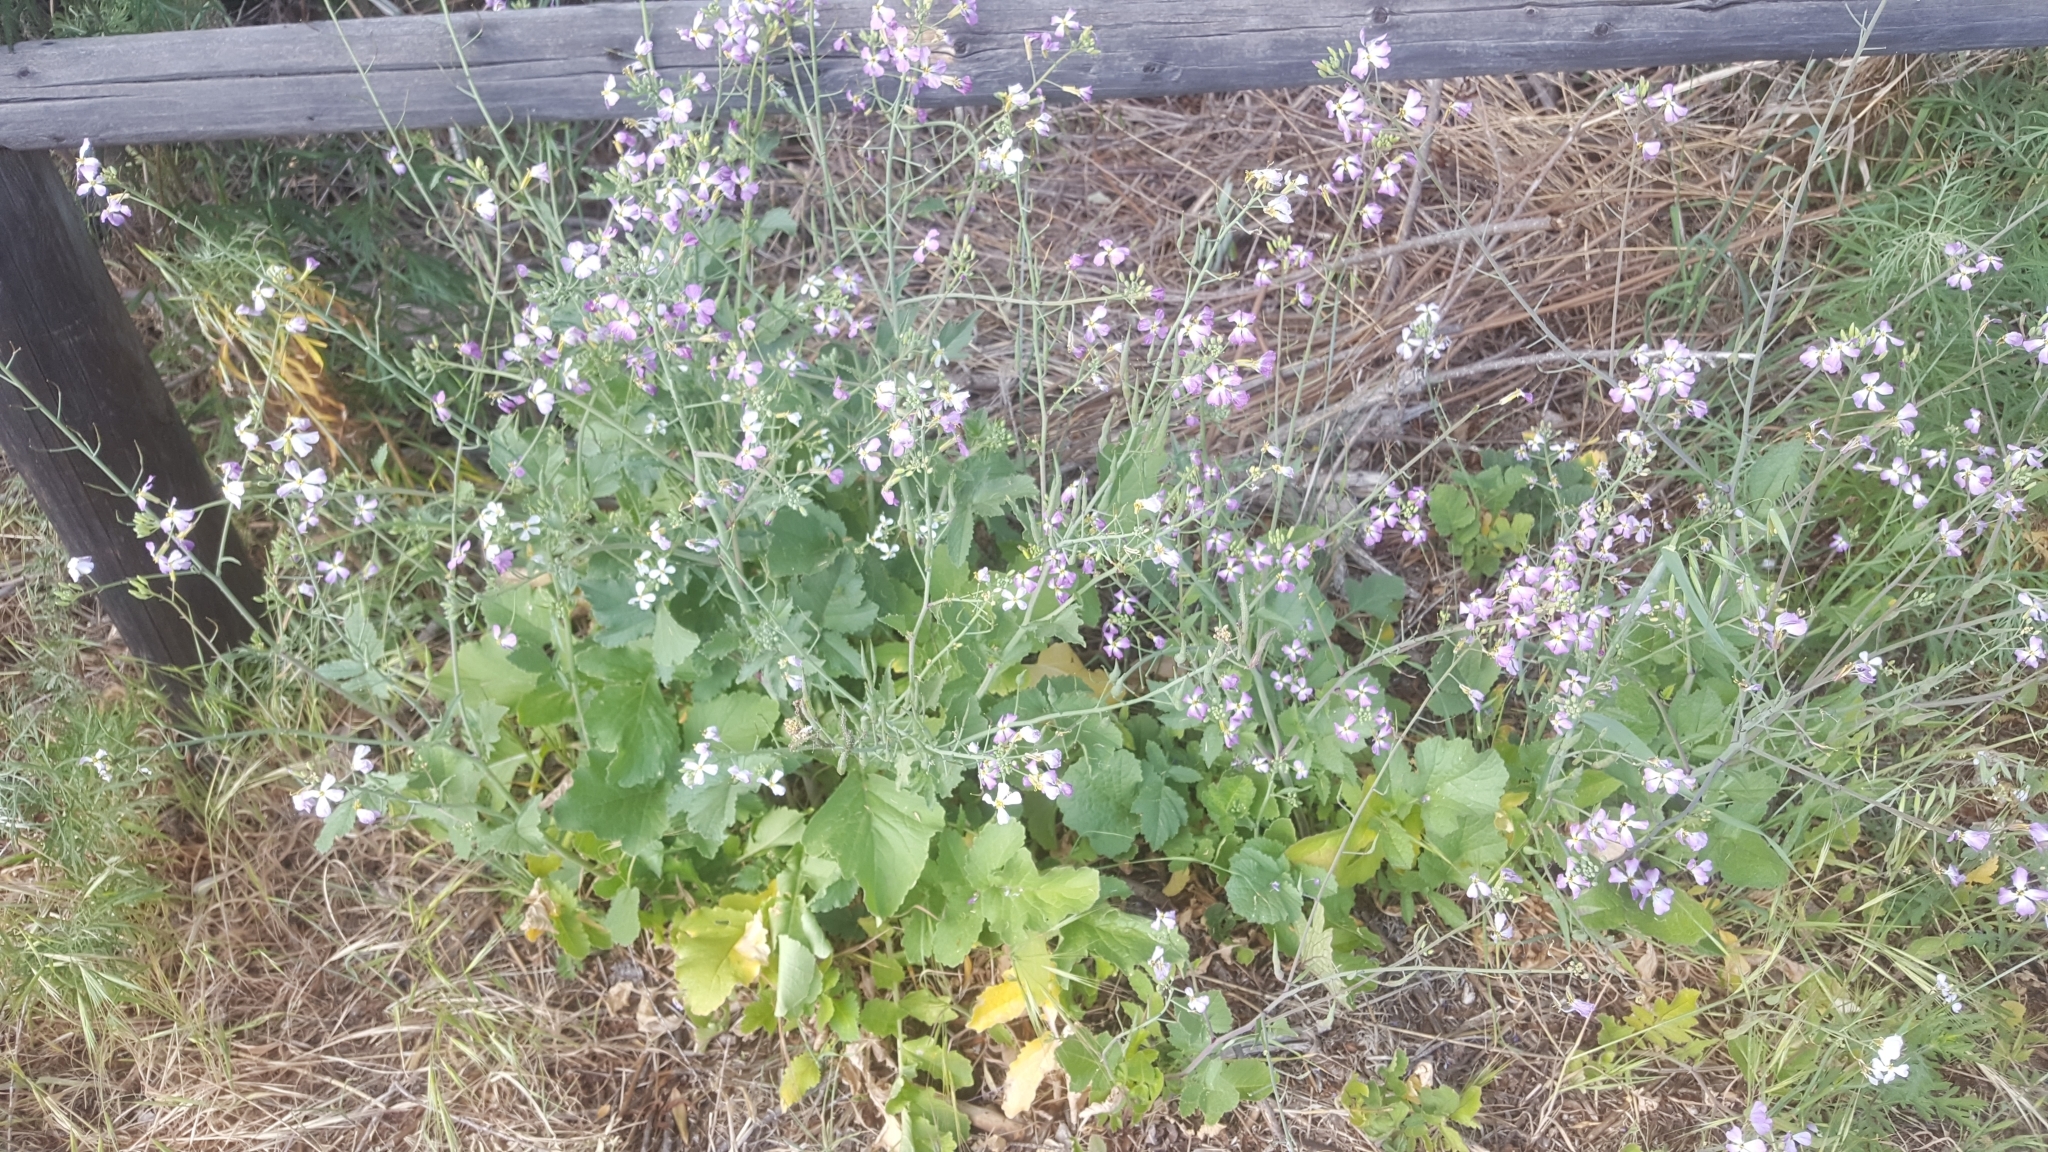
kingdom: Plantae
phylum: Tracheophyta
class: Magnoliopsida
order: Brassicales
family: Brassicaceae
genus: Raphanus
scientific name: Raphanus sativus
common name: Cultivated radish
